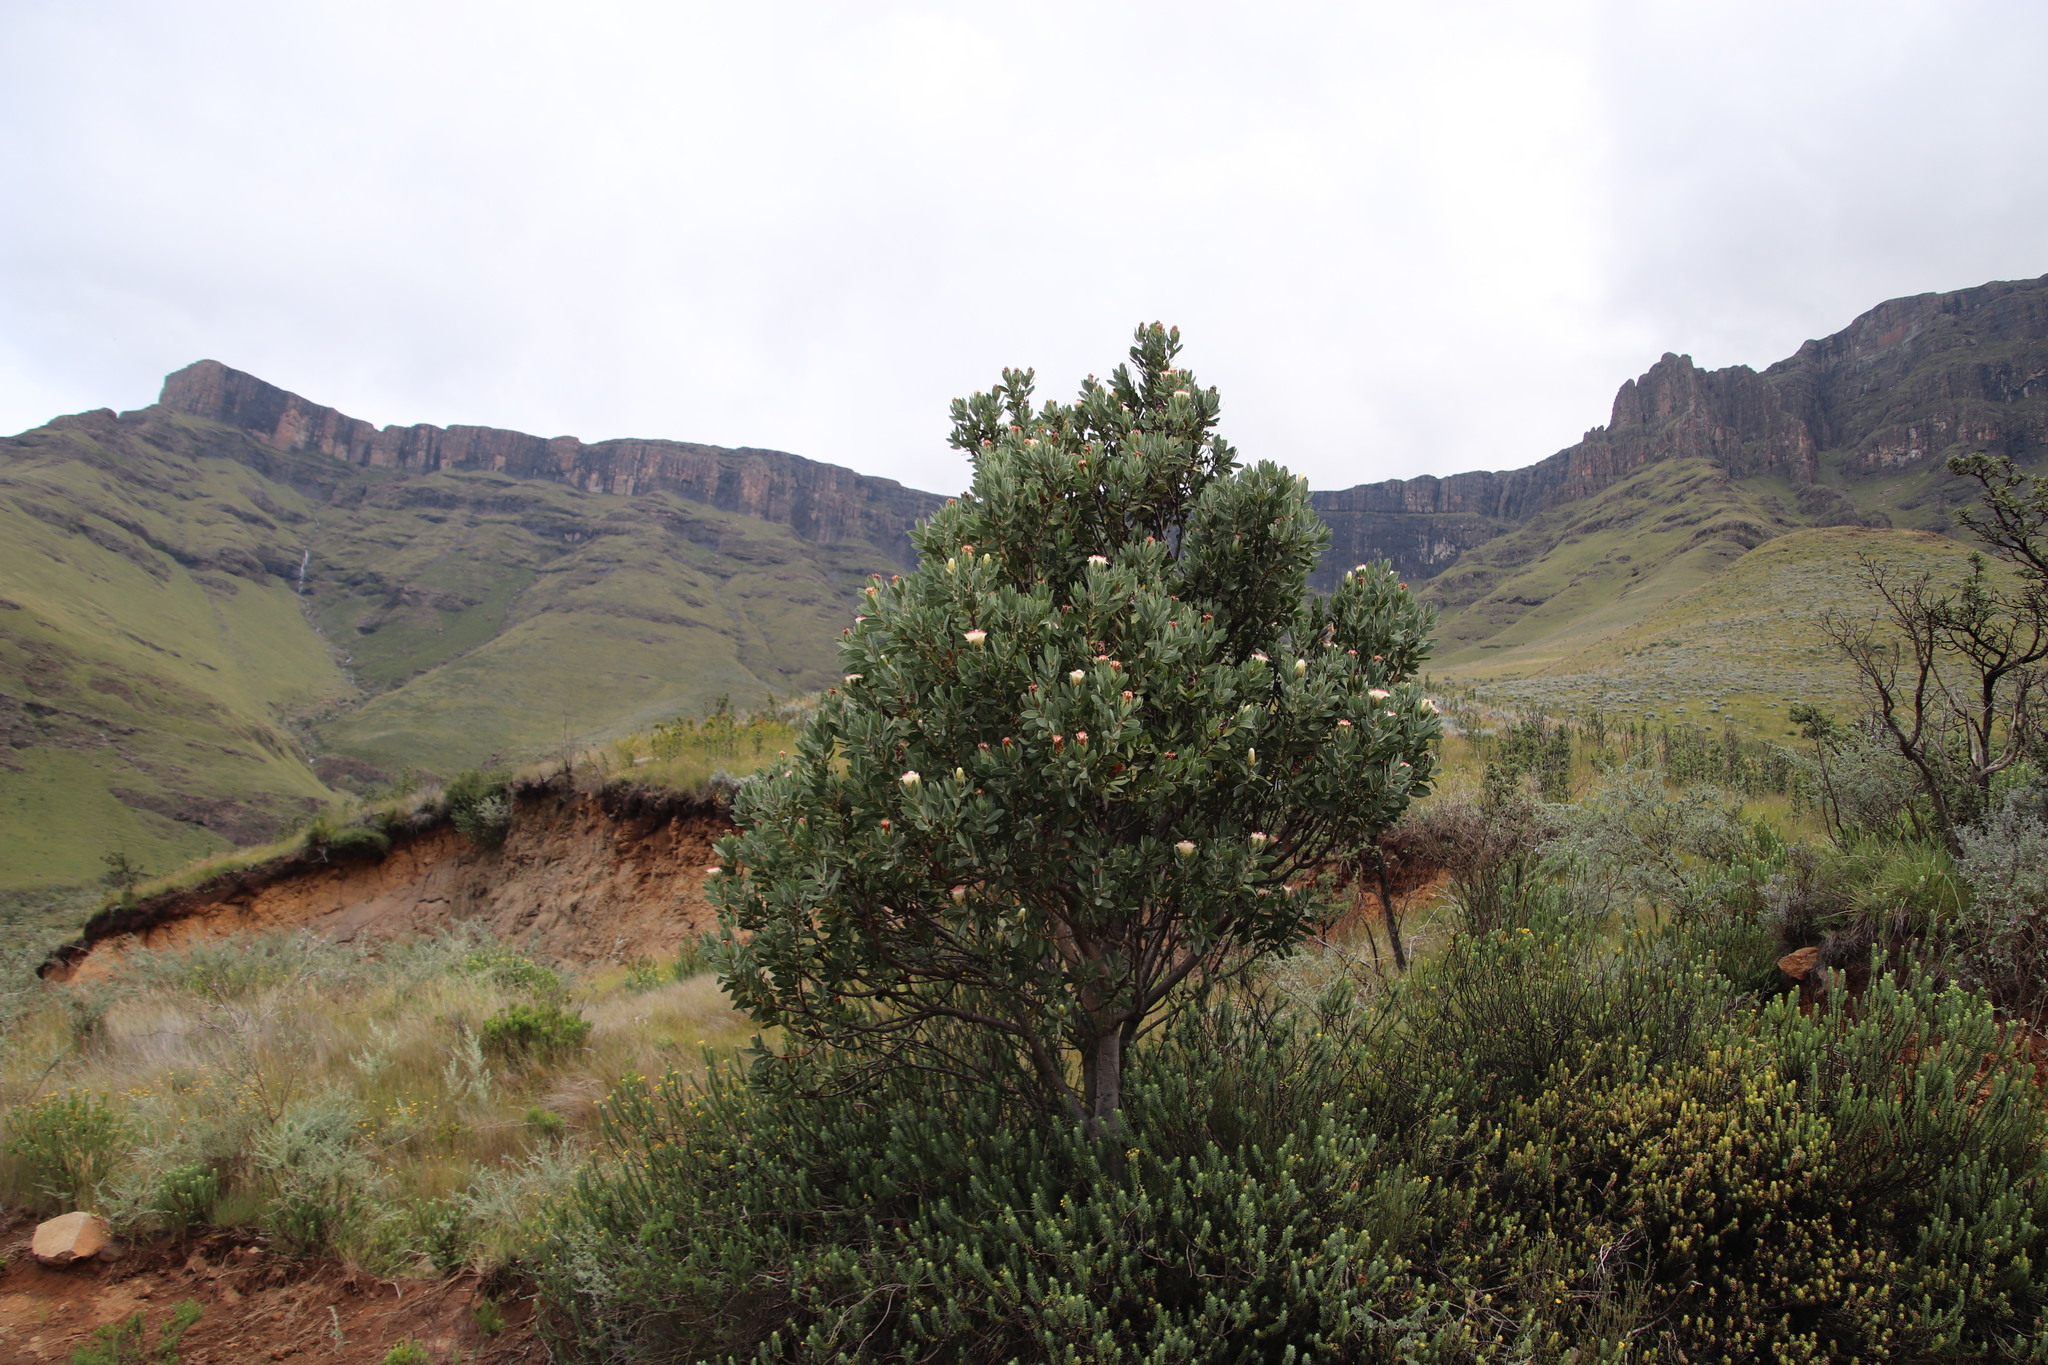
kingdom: Plantae
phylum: Tracheophyta
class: Magnoliopsida
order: Proteales
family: Proteaceae
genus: Protea
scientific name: Protea subvestita
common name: Lip-flower sugarbush
